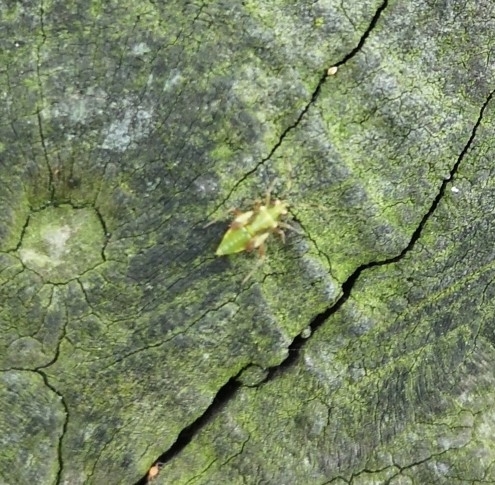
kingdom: Animalia
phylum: Arthropoda
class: Insecta
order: Hemiptera
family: Miridae
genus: Dryophilocoris
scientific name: Dryophilocoris flavoquadrimaculatus
